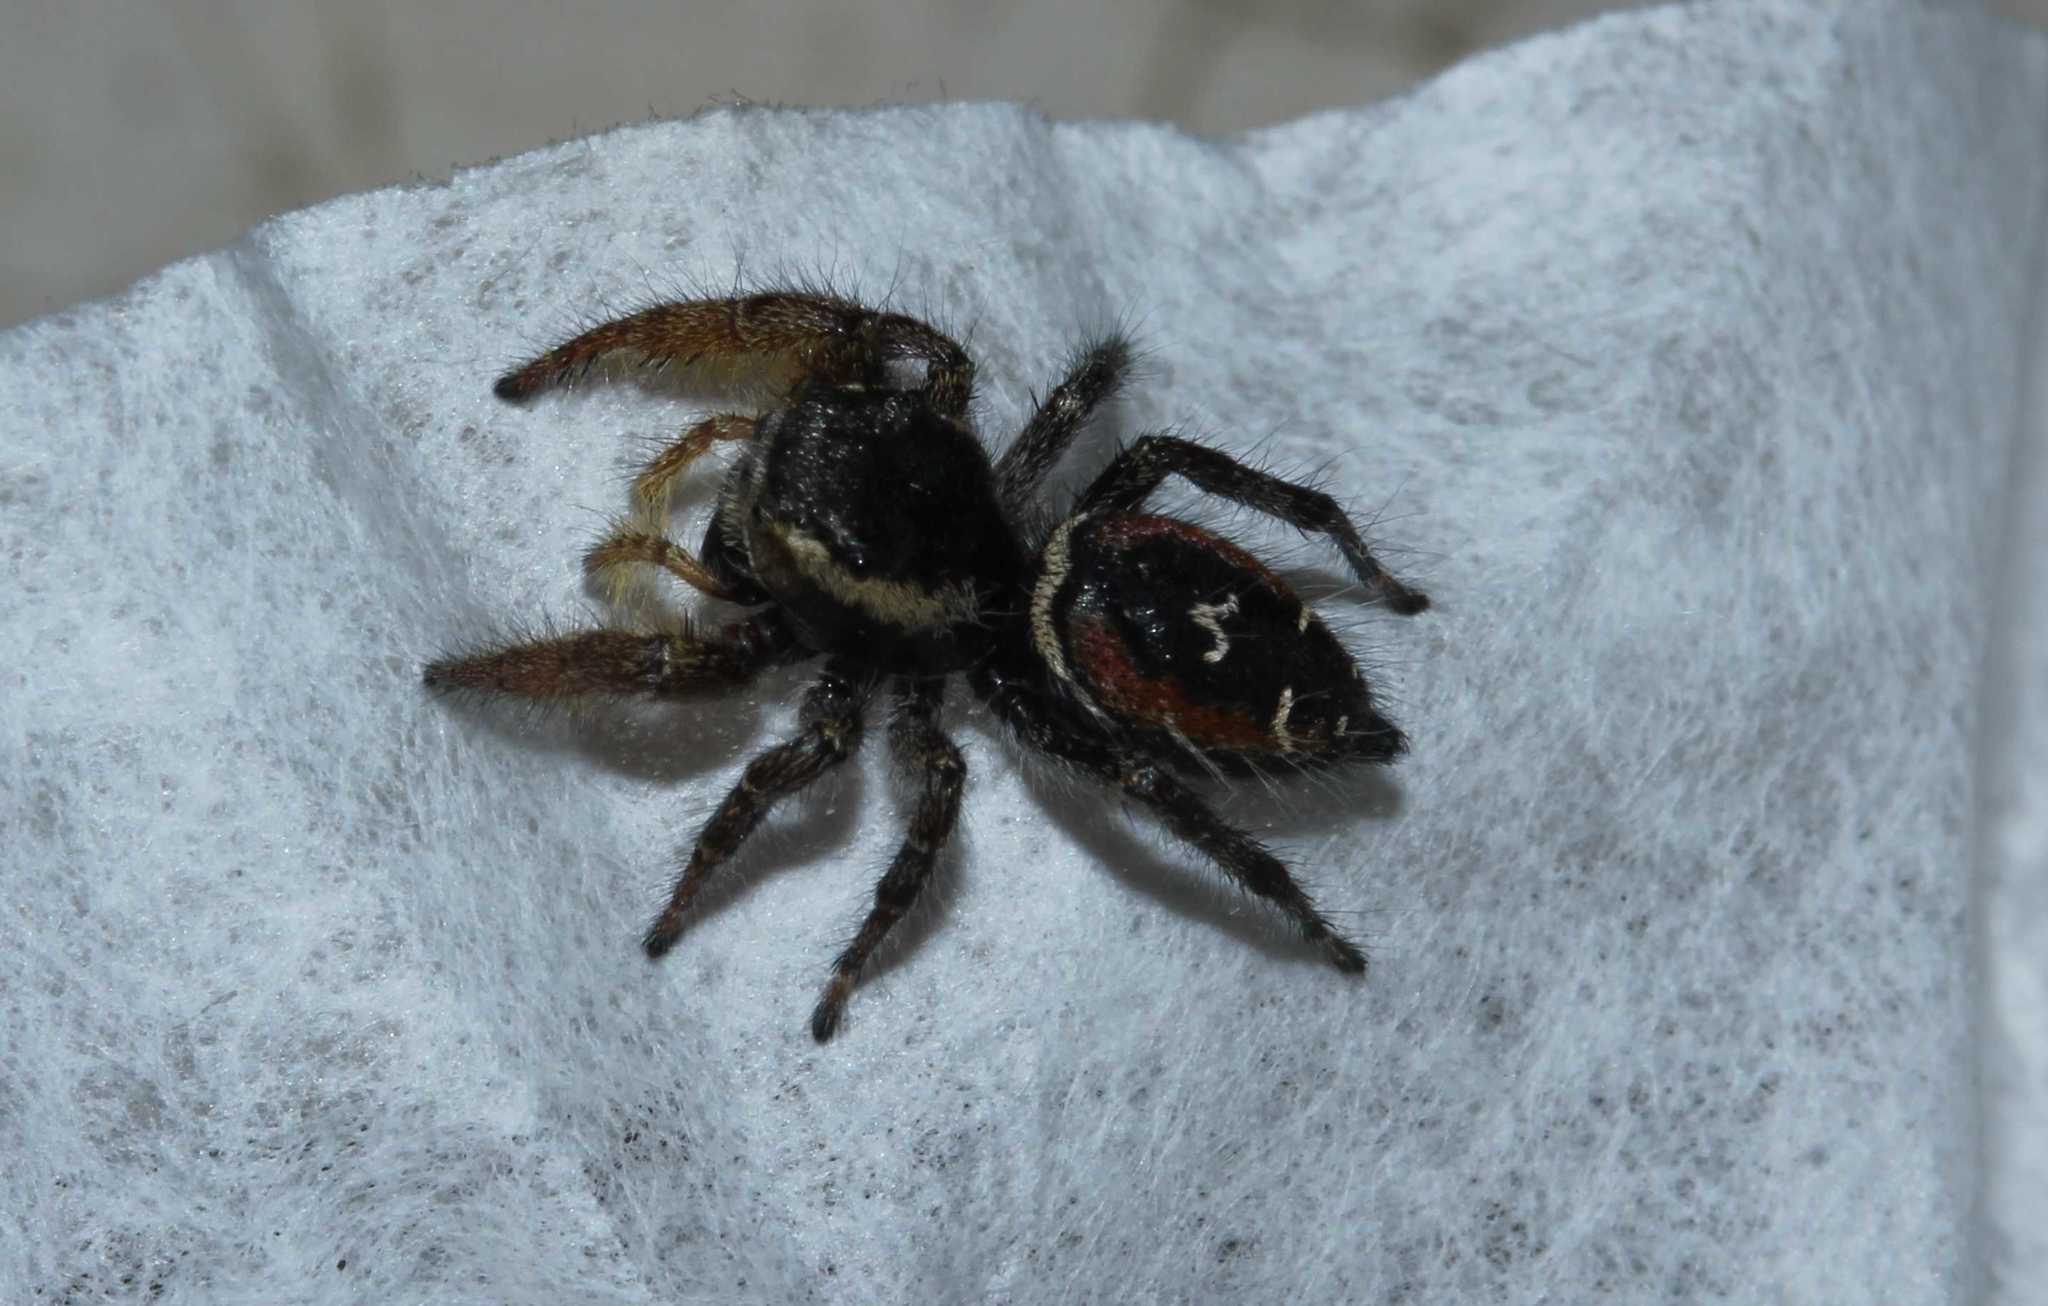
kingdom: Animalia
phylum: Arthropoda
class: Arachnida
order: Araneae
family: Salticidae
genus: Phidippus
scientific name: Phidippus cruentus
